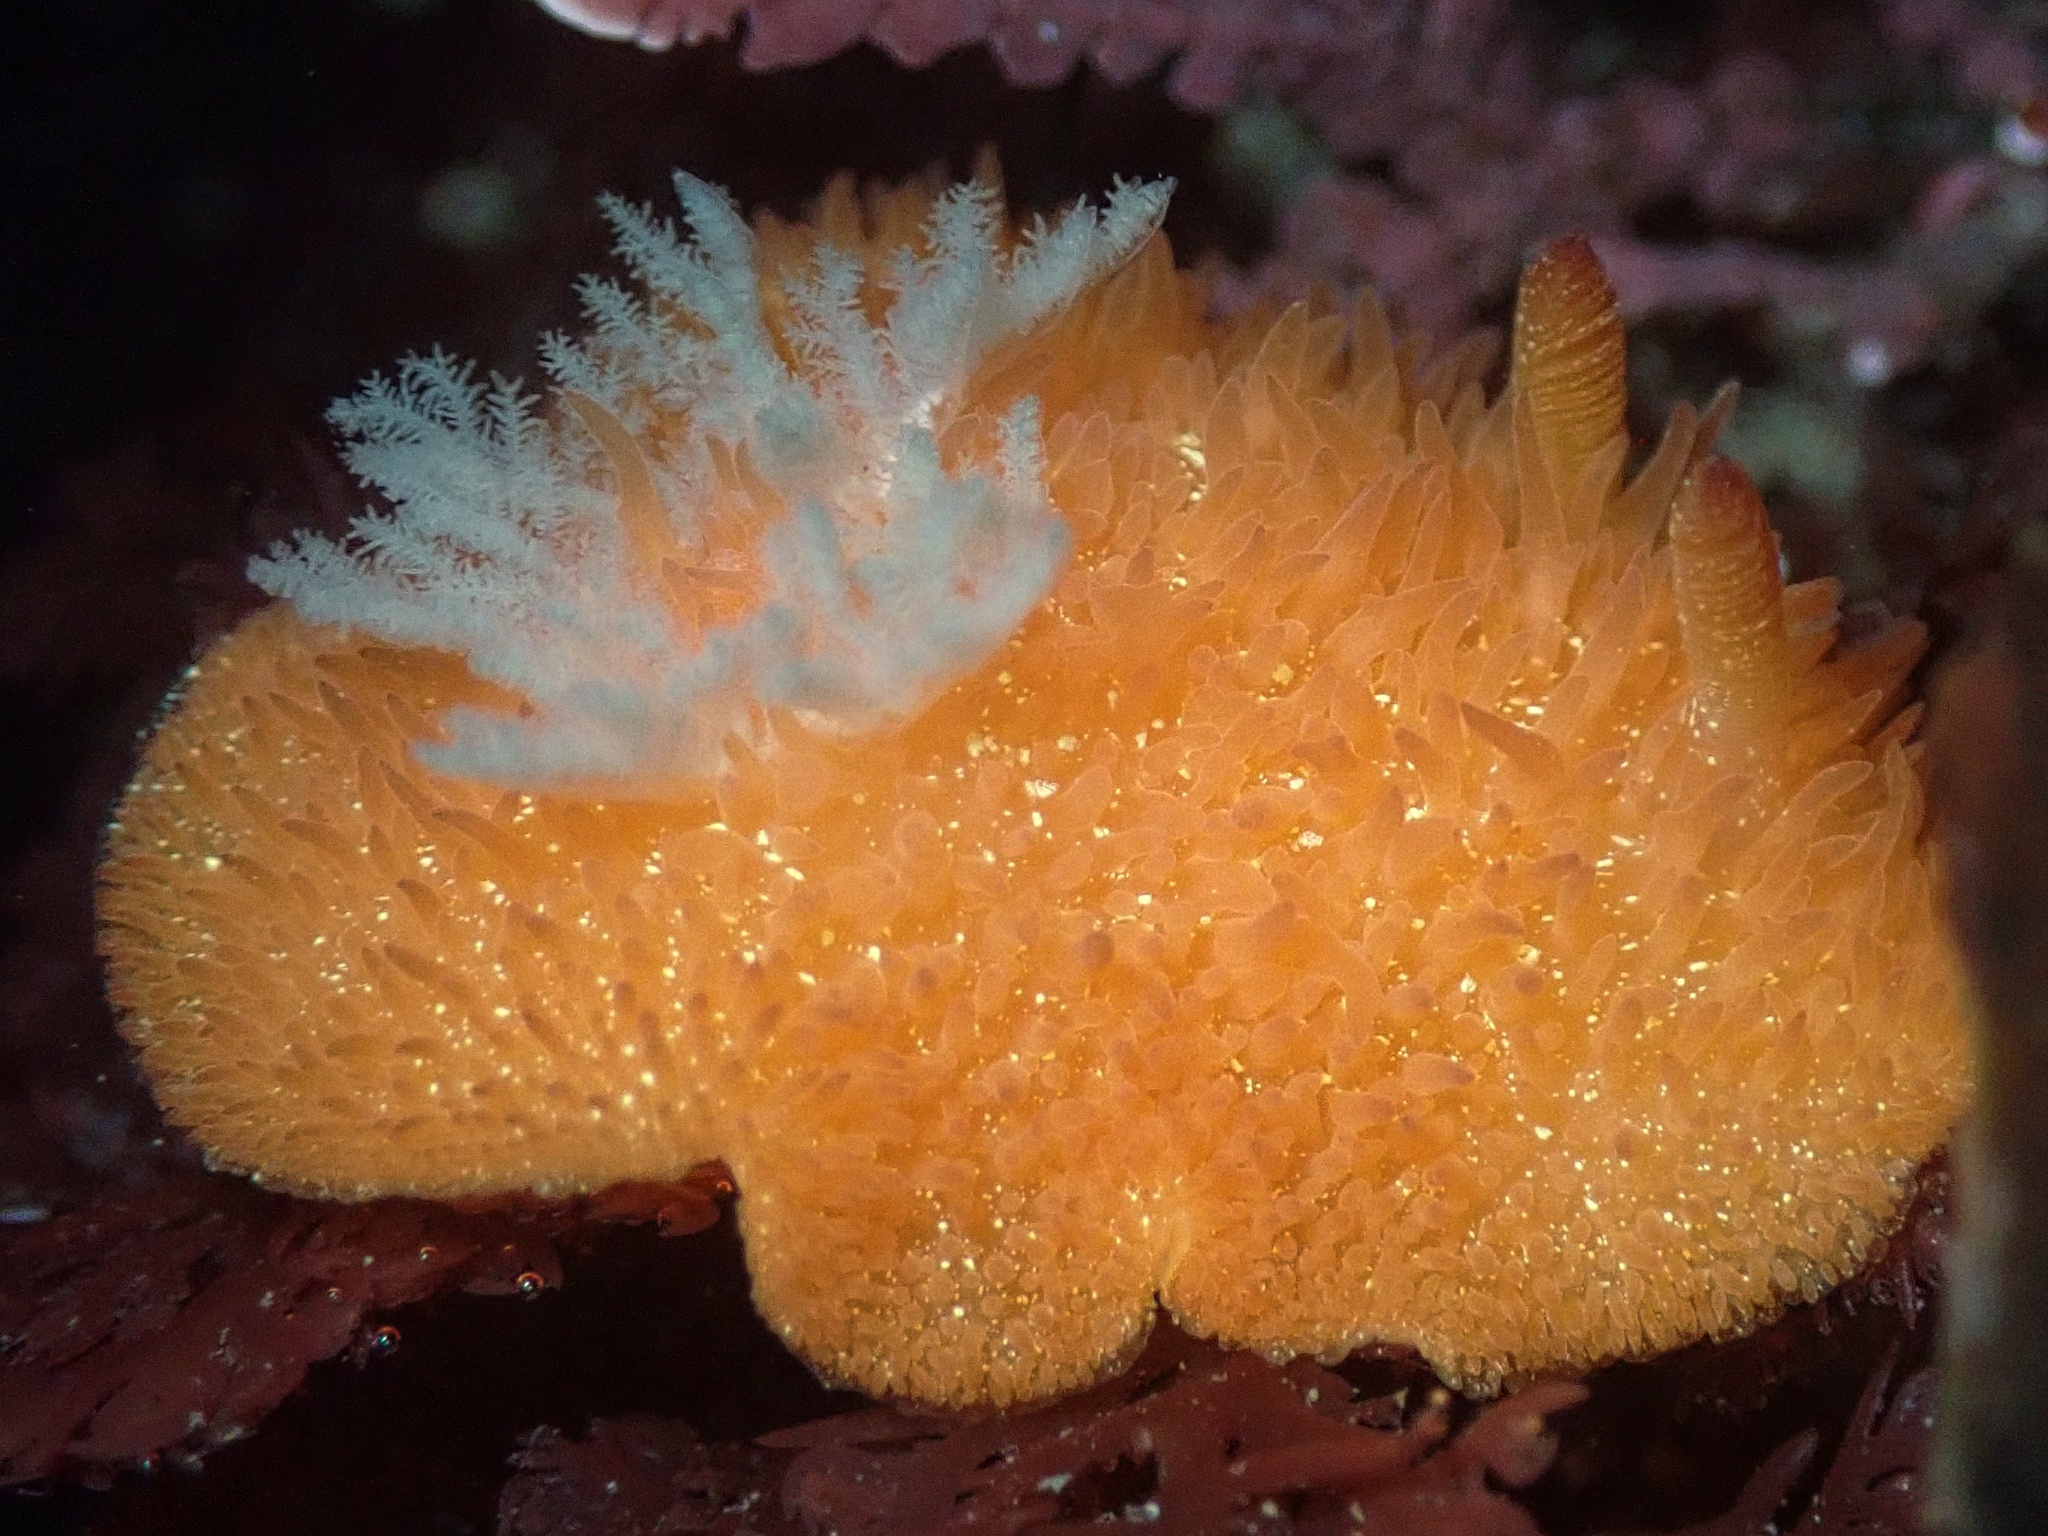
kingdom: Animalia
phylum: Mollusca
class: Gastropoda
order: Nudibranchia
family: Onchidorididae
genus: Acanthodoris
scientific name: Acanthodoris lutea
